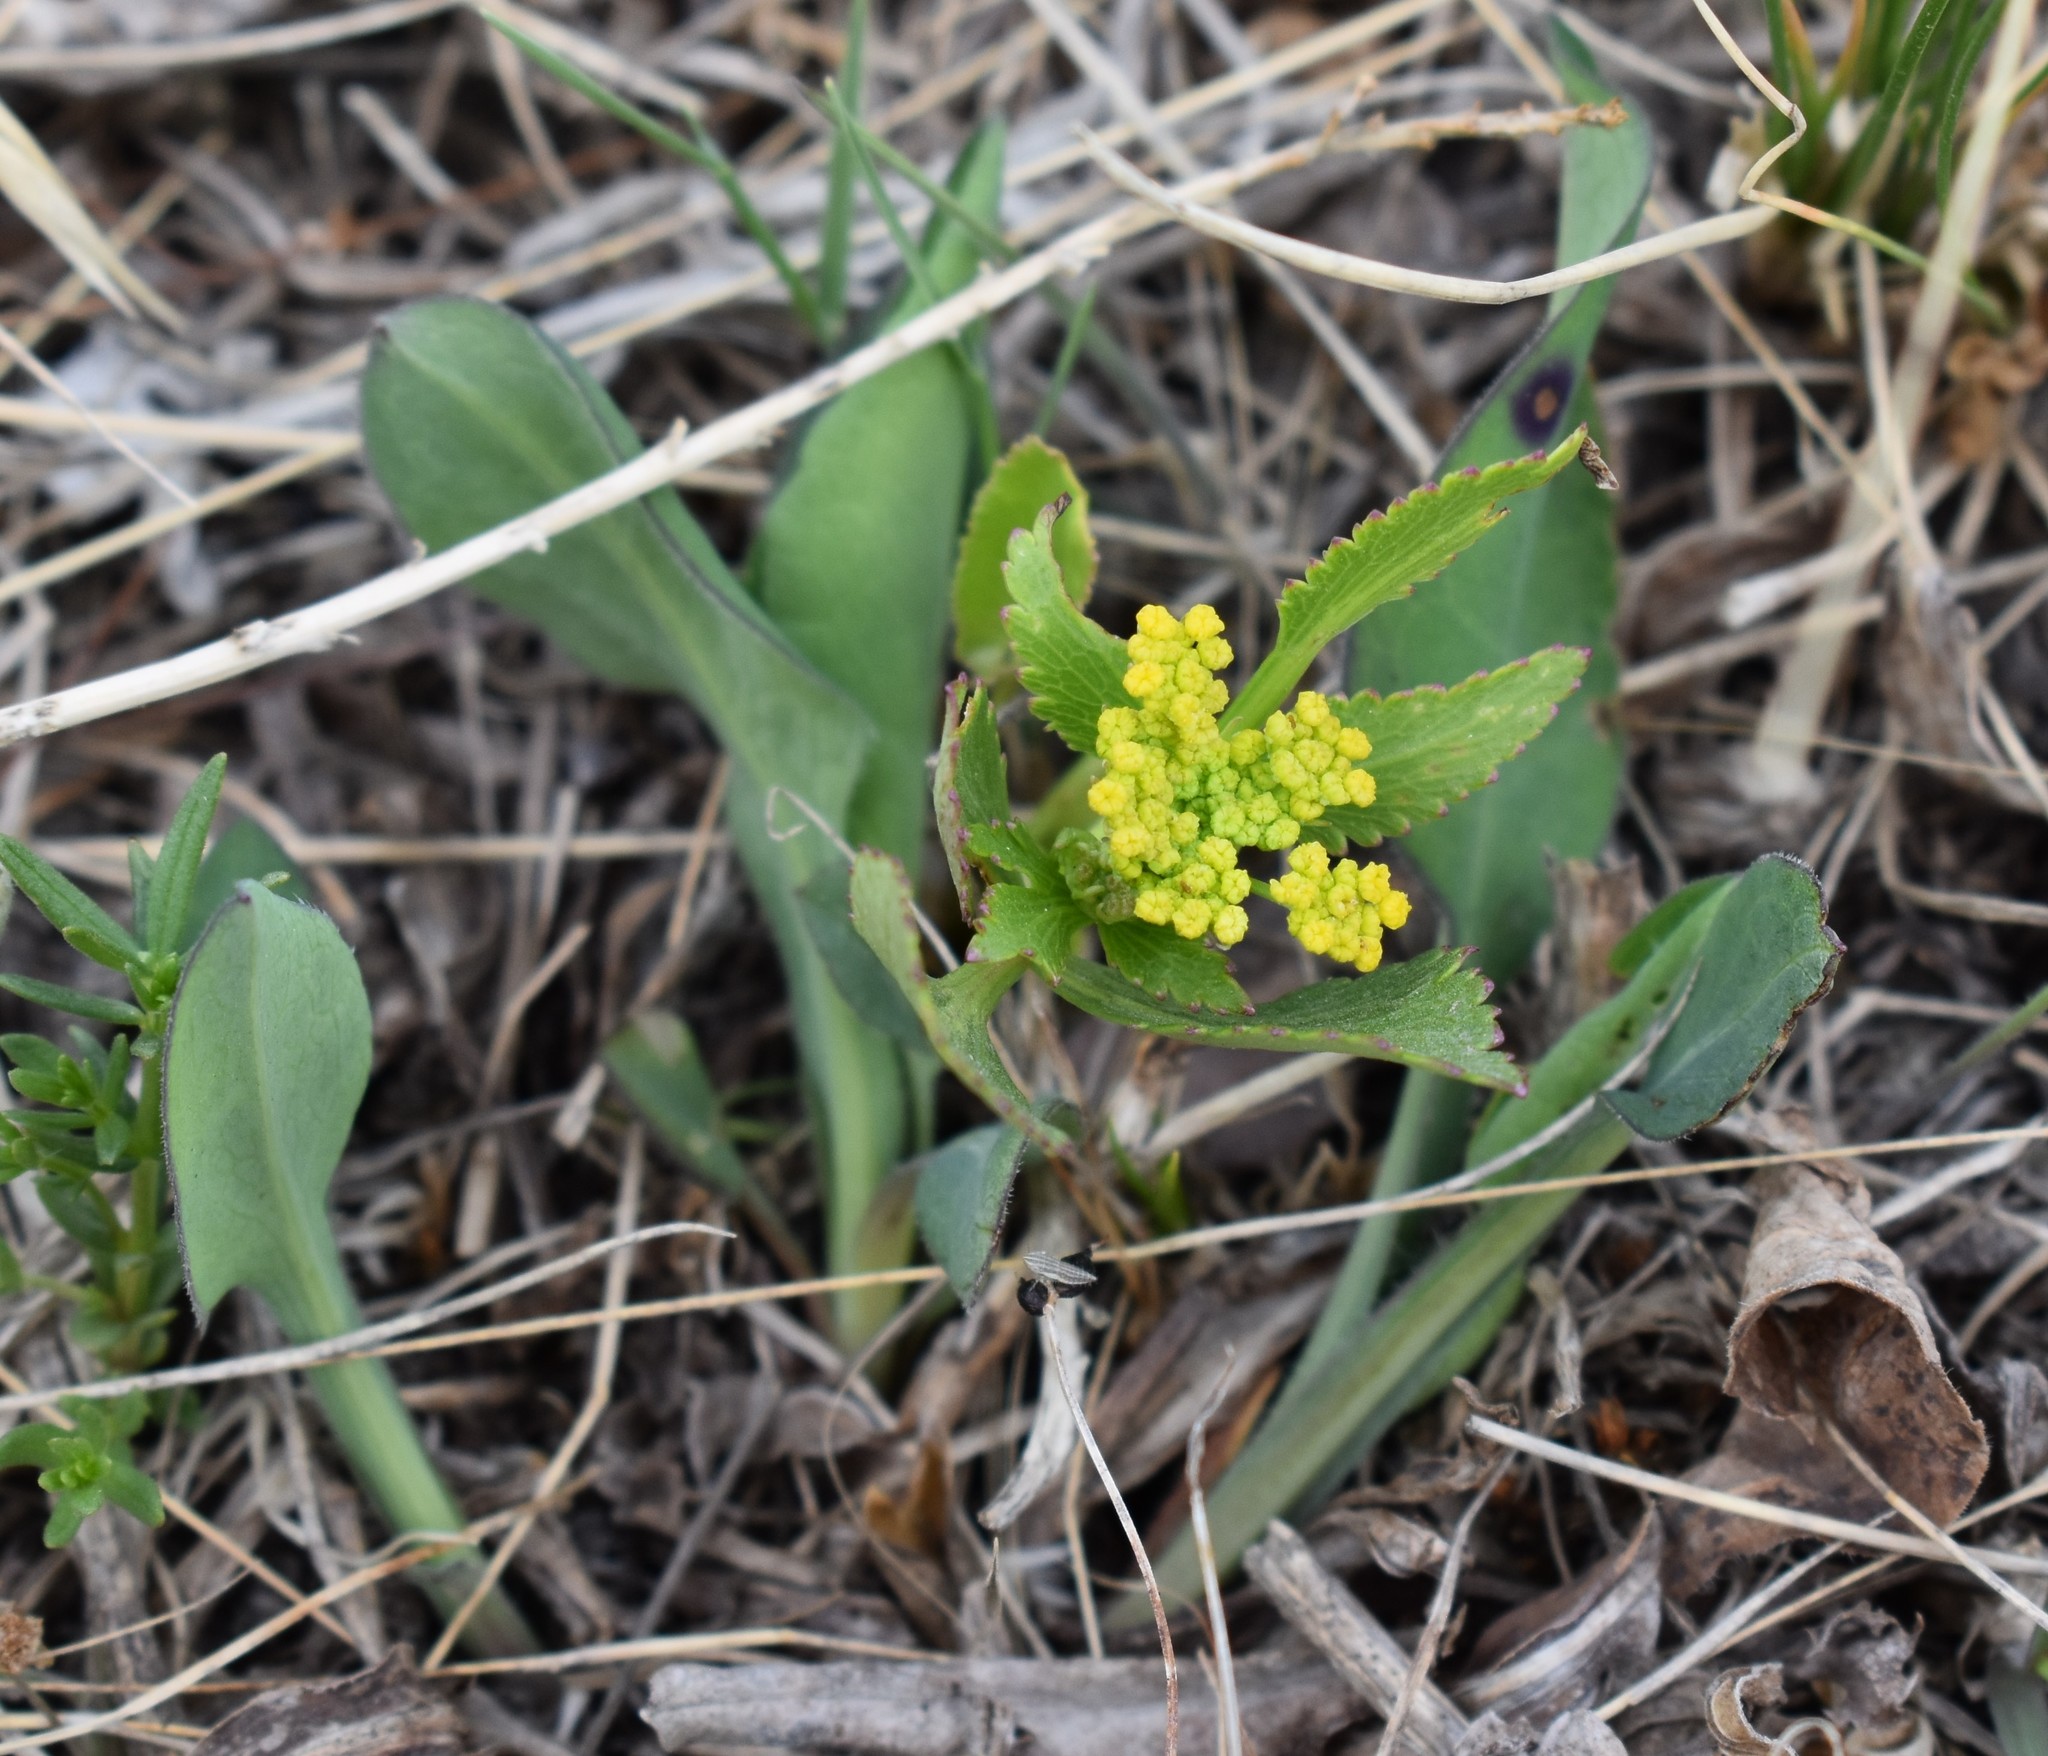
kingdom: Plantae
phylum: Tracheophyta
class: Magnoliopsida
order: Apiales
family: Apiaceae
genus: Zizia
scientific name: Zizia aptera
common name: Heart-leaved alexanders
